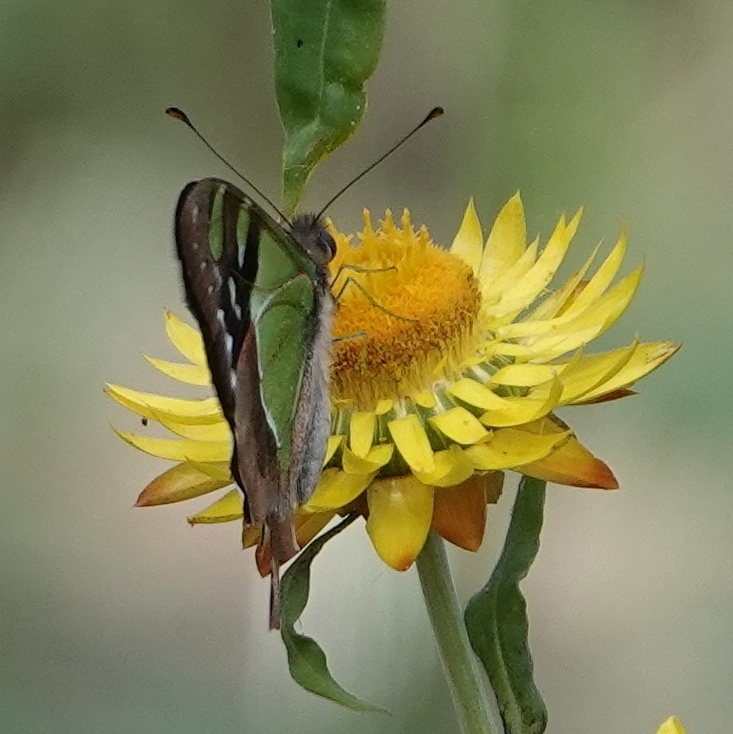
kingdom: Animalia
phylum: Arthropoda
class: Insecta
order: Lepidoptera
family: Papilionidae
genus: Graphium
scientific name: Graphium macleayanus
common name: Macleay's swallowtail
